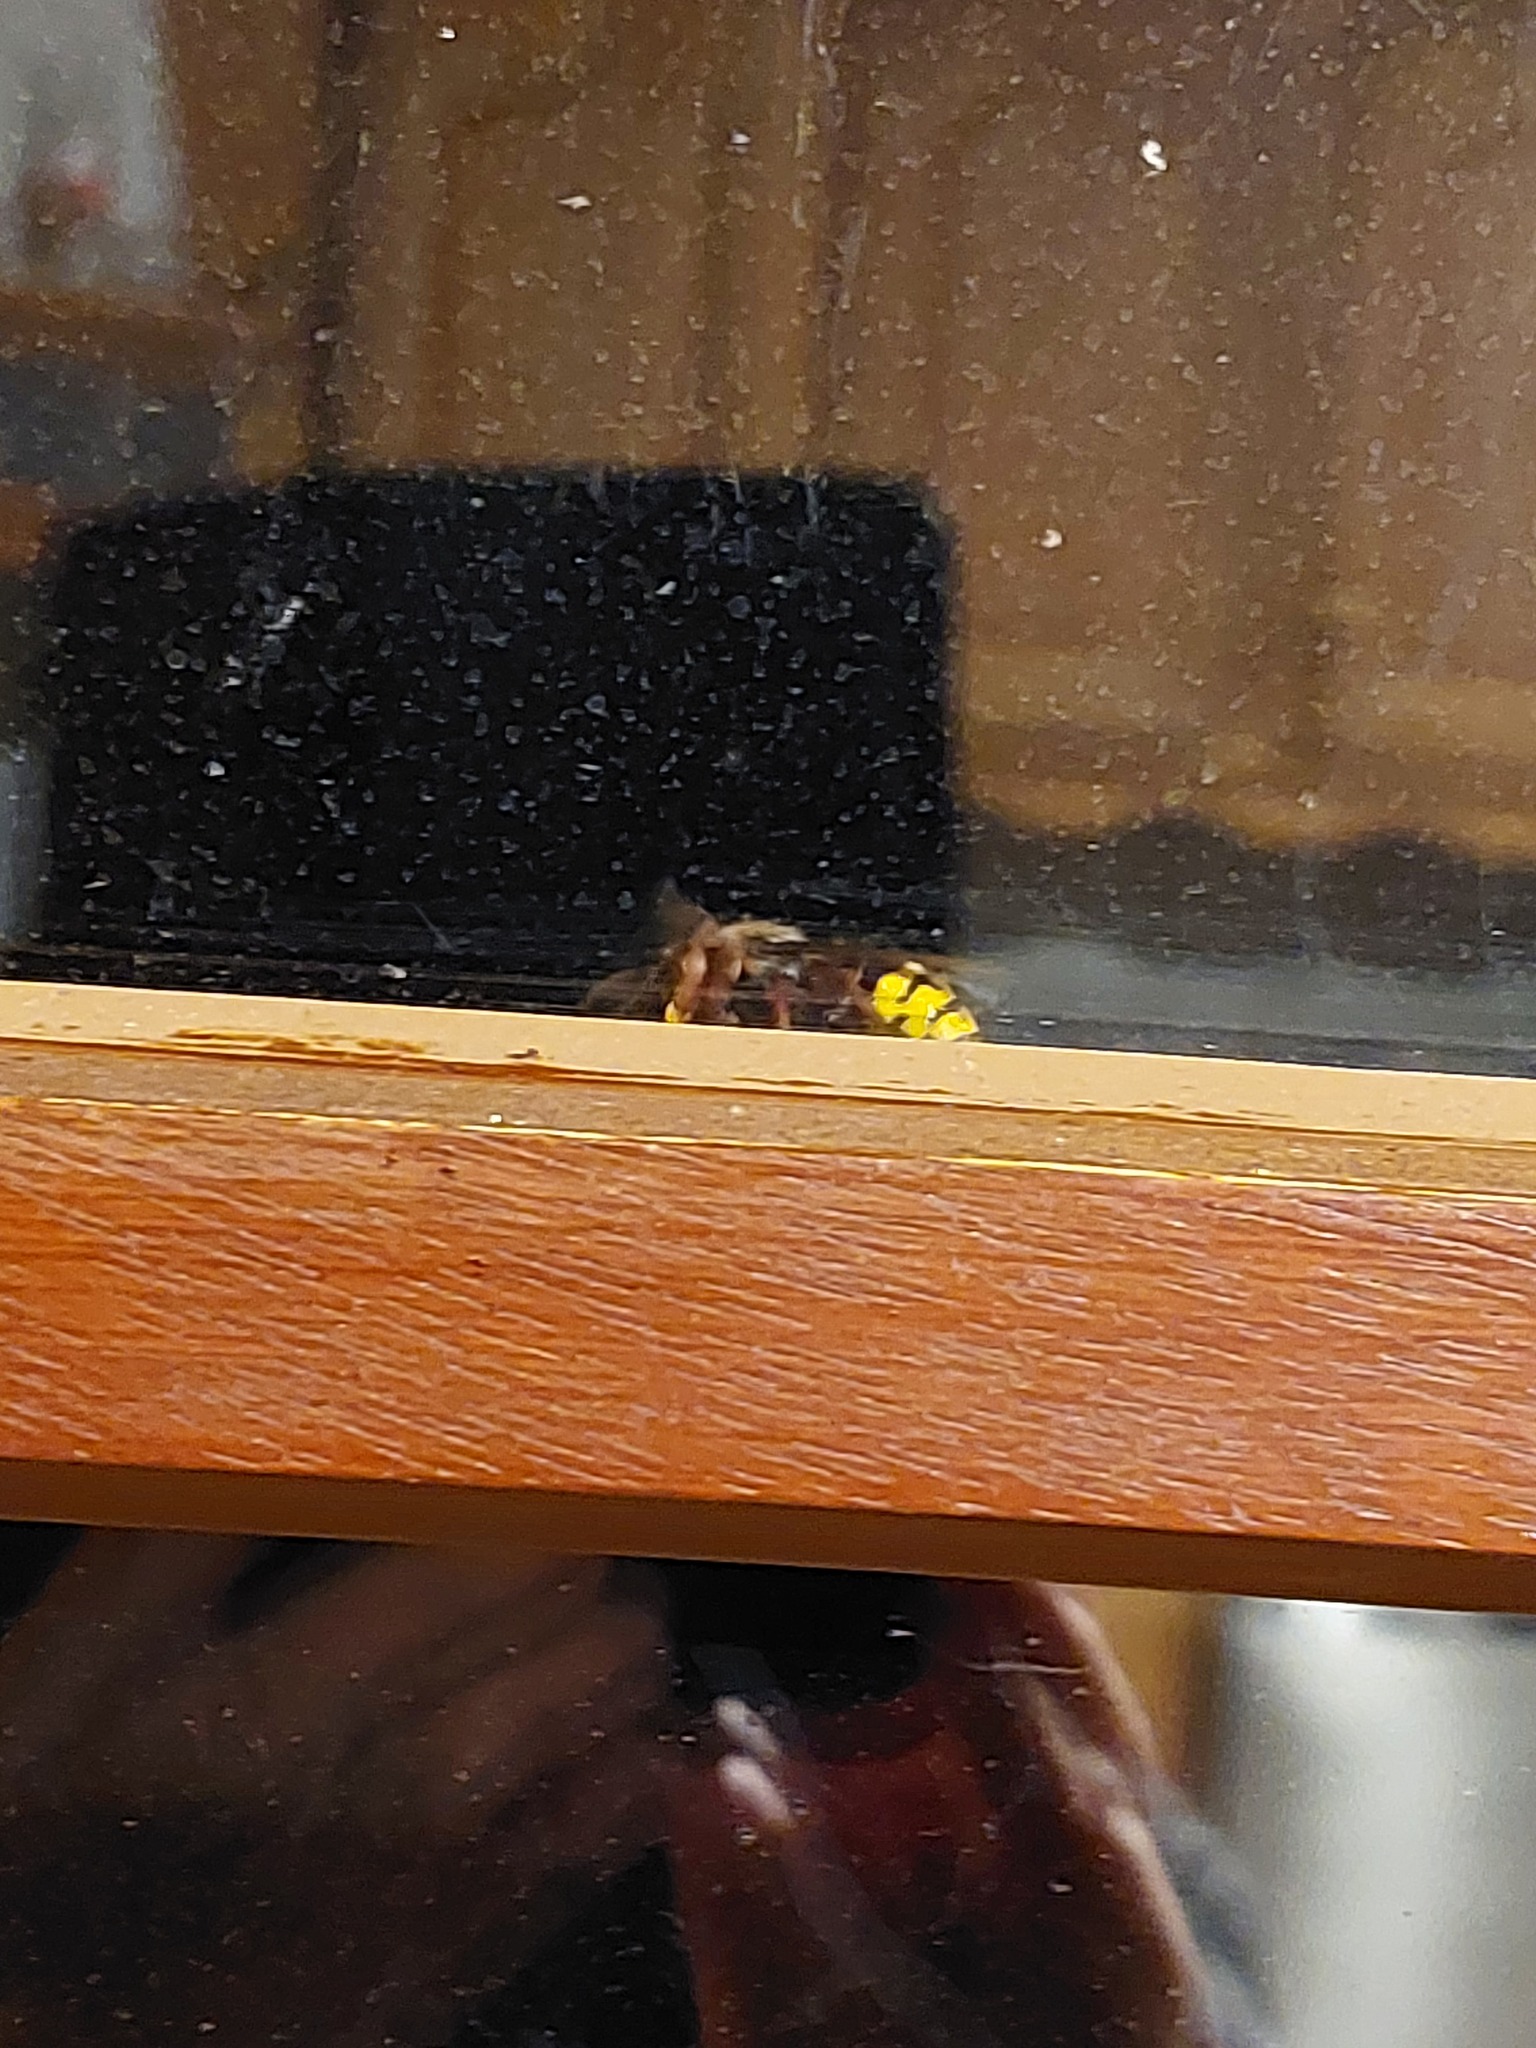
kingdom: Animalia
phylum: Arthropoda
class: Insecta
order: Hymenoptera
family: Vespidae
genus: Vespa
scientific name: Vespa crabro
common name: Hornet
